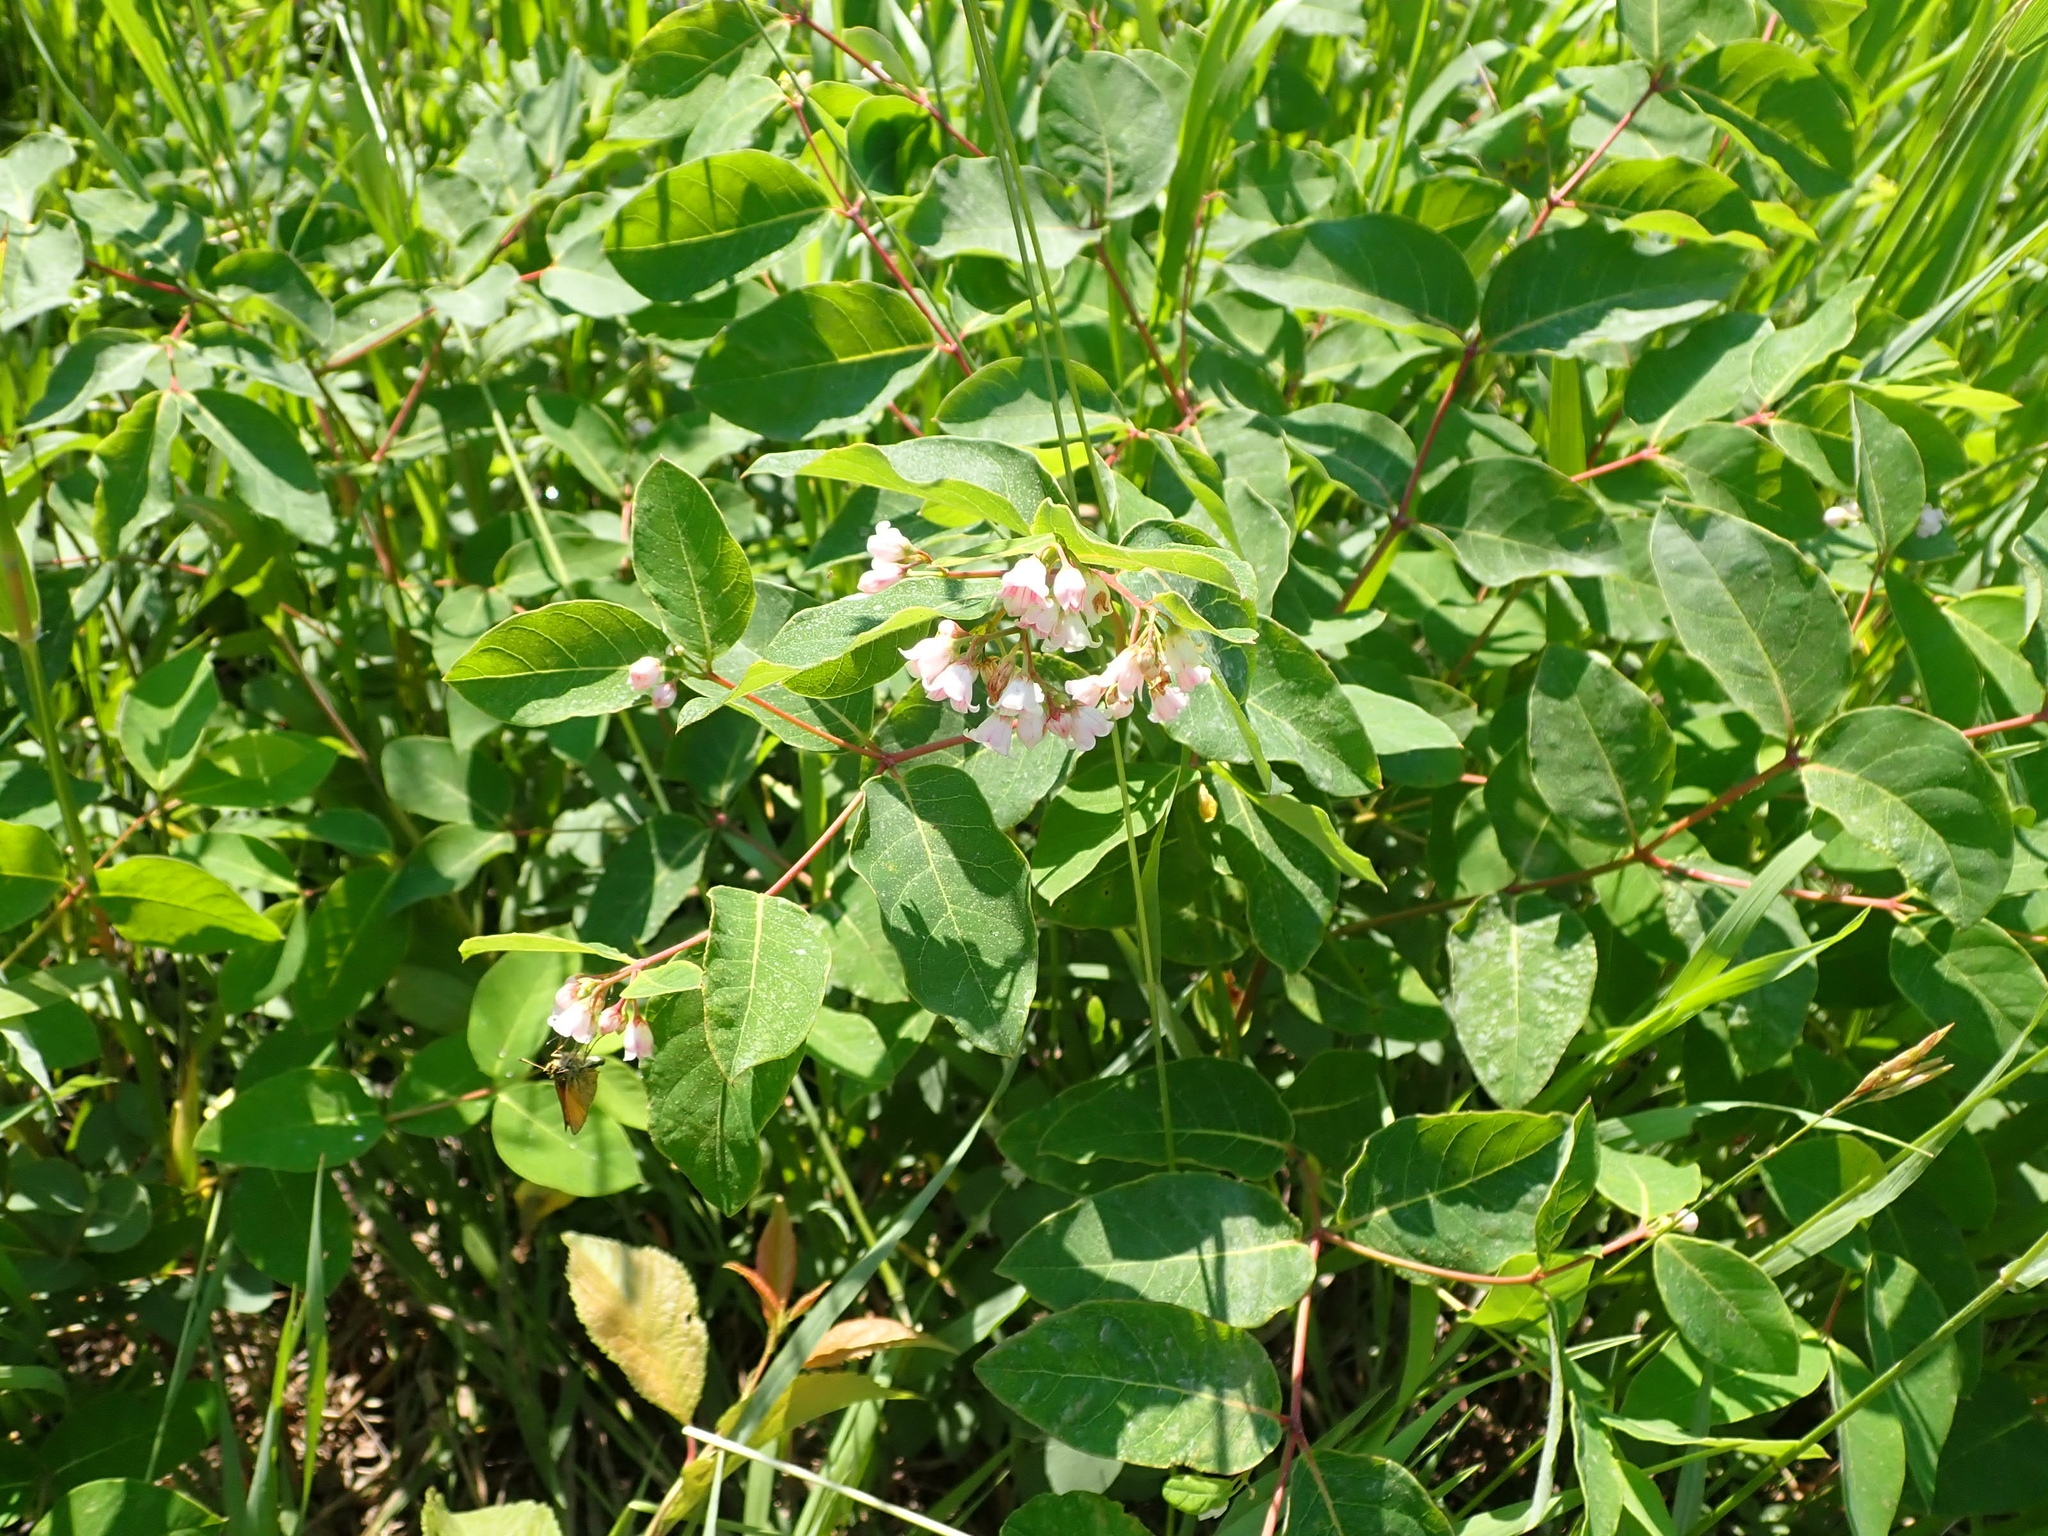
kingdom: Plantae
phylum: Tracheophyta
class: Magnoliopsida
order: Gentianales
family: Apocynaceae
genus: Apocynum
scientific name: Apocynum androsaemifolium
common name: Spreading dogbane
